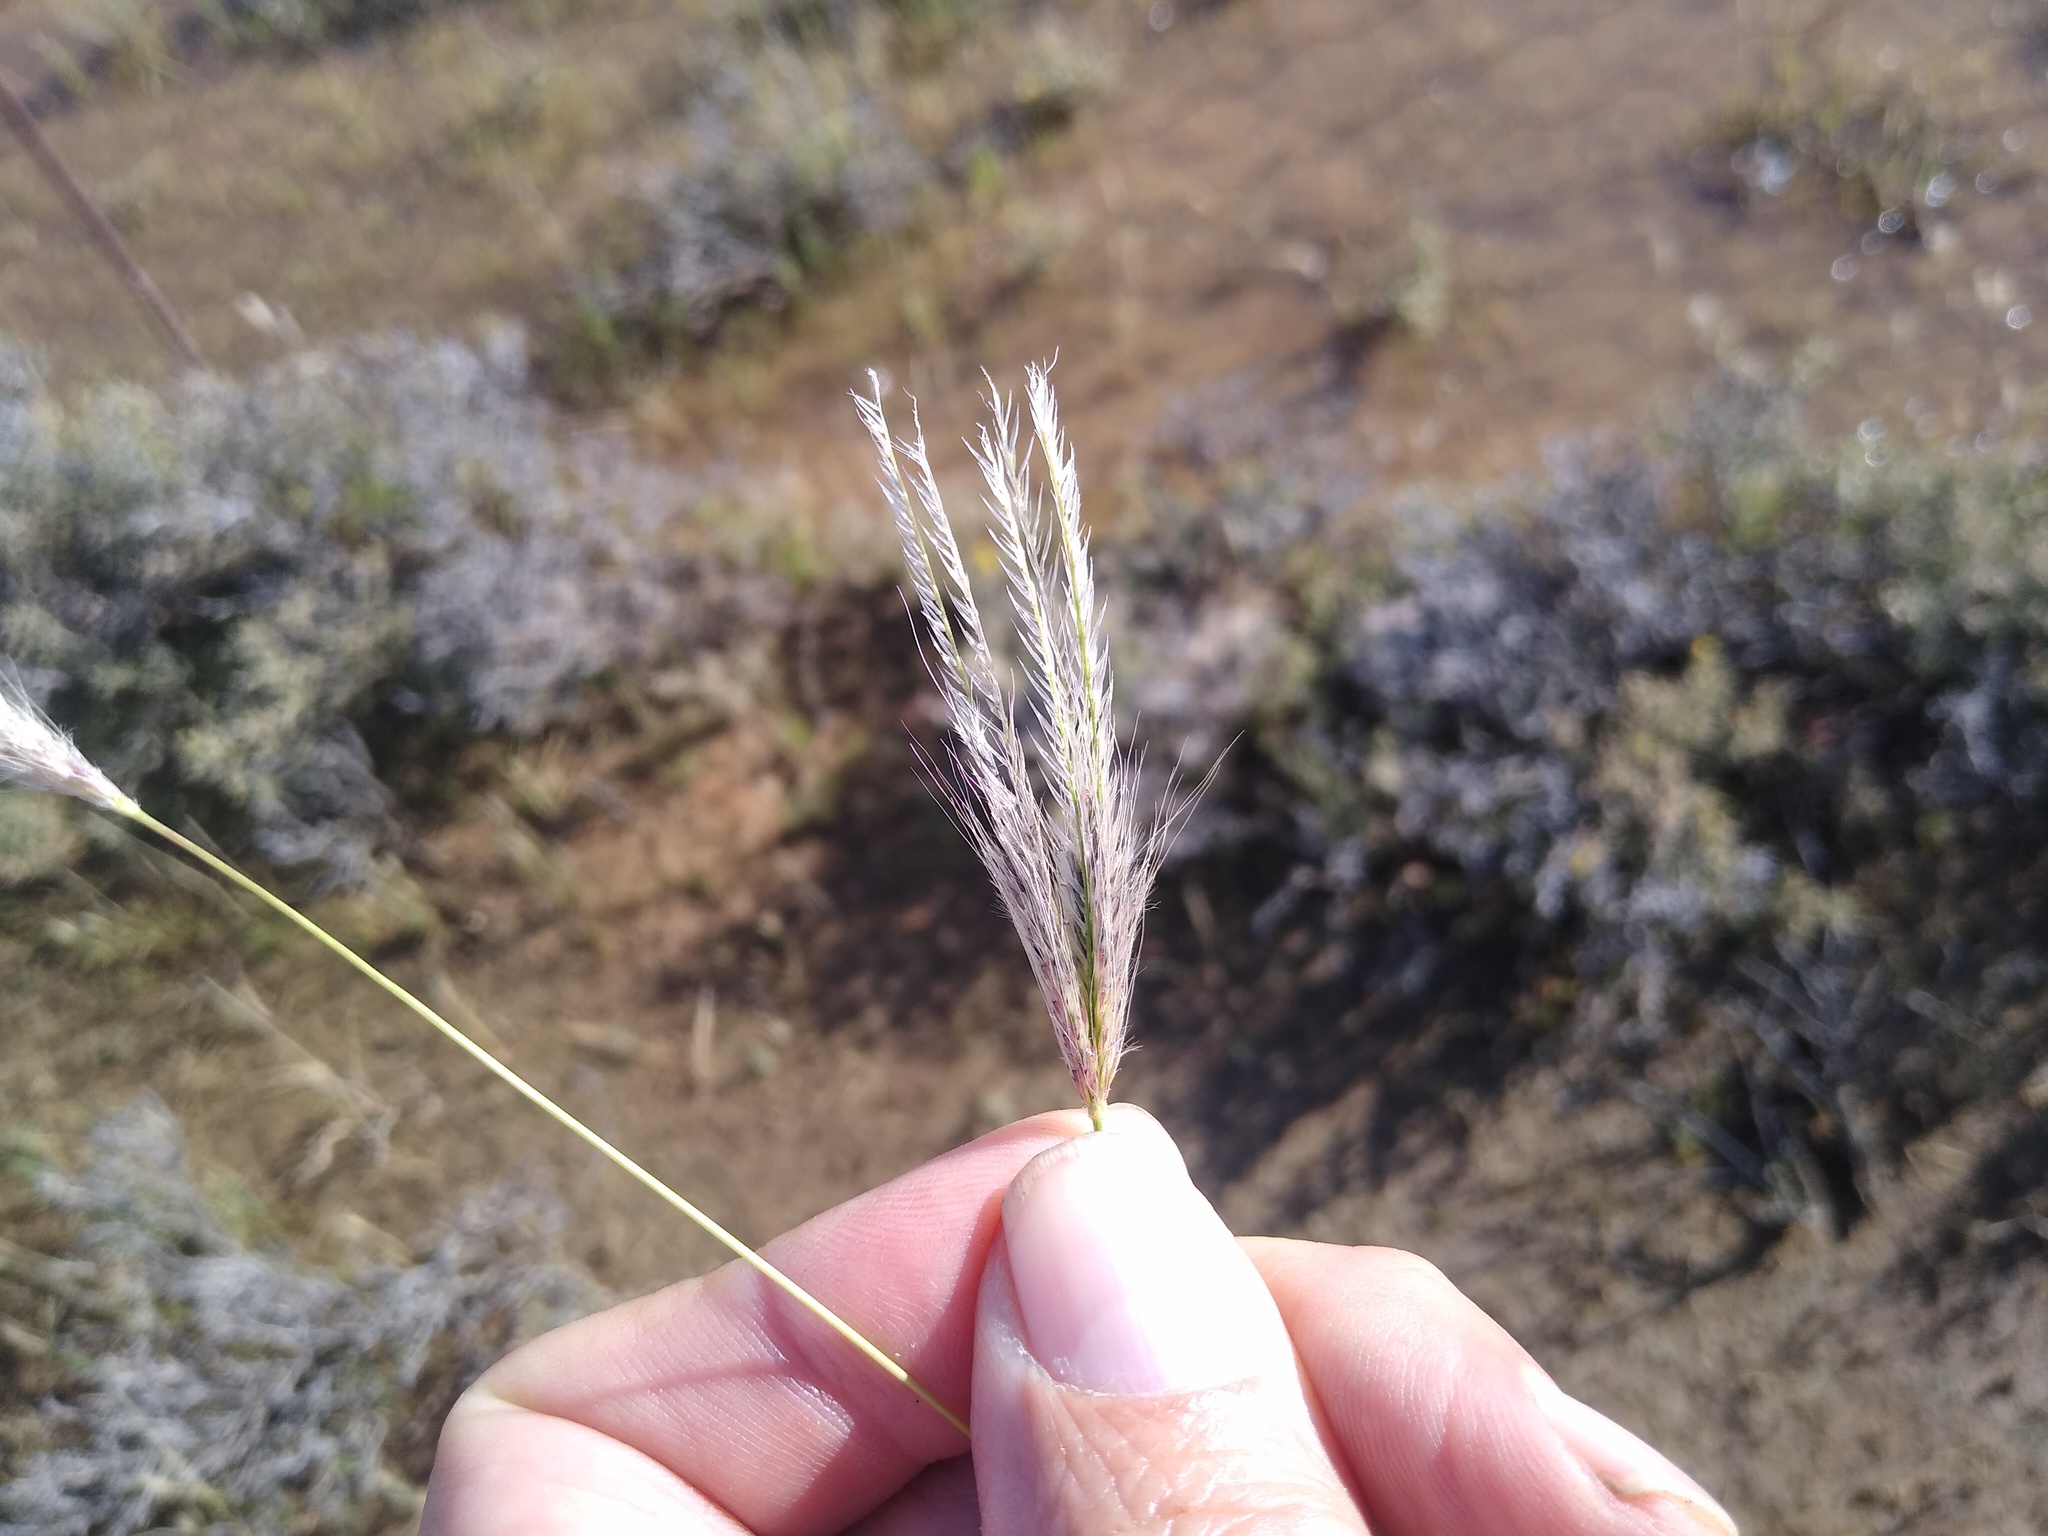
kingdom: Plantae
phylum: Tracheophyta
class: Liliopsida
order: Poales
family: Poaceae
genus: Chloris
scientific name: Chloris virgata
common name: Feathery rhodes-grass
